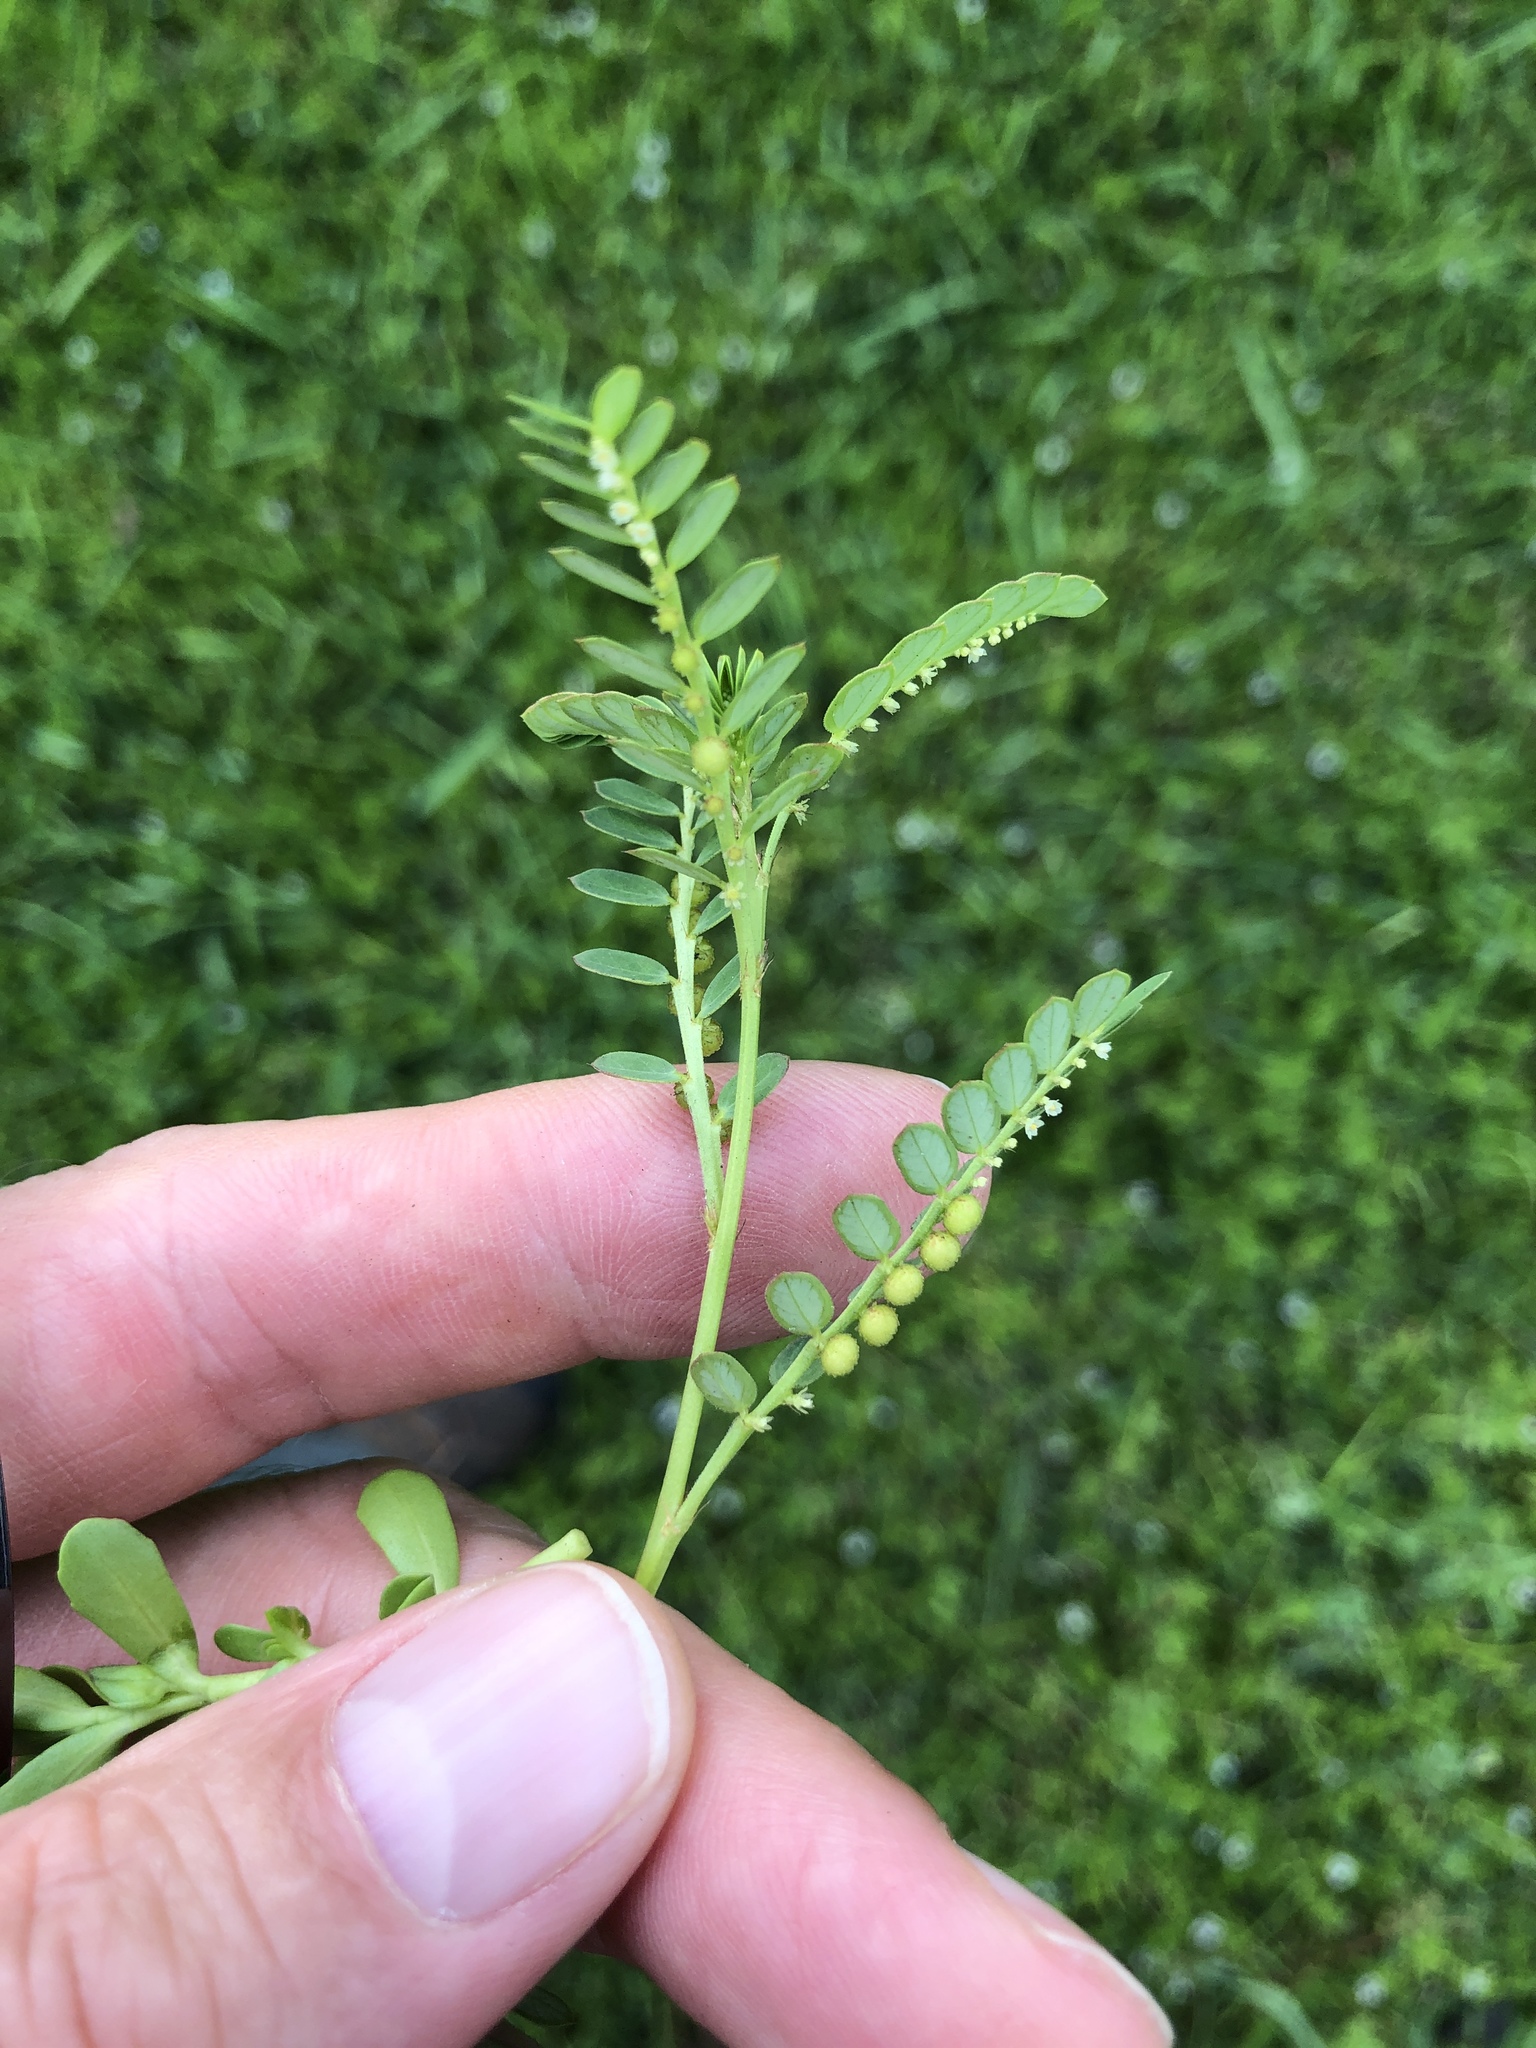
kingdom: Plantae
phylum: Tracheophyta
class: Magnoliopsida
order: Malpighiales
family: Phyllanthaceae
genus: Phyllanthus
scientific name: Phyllanthus urinaria
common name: Chamber bitter
